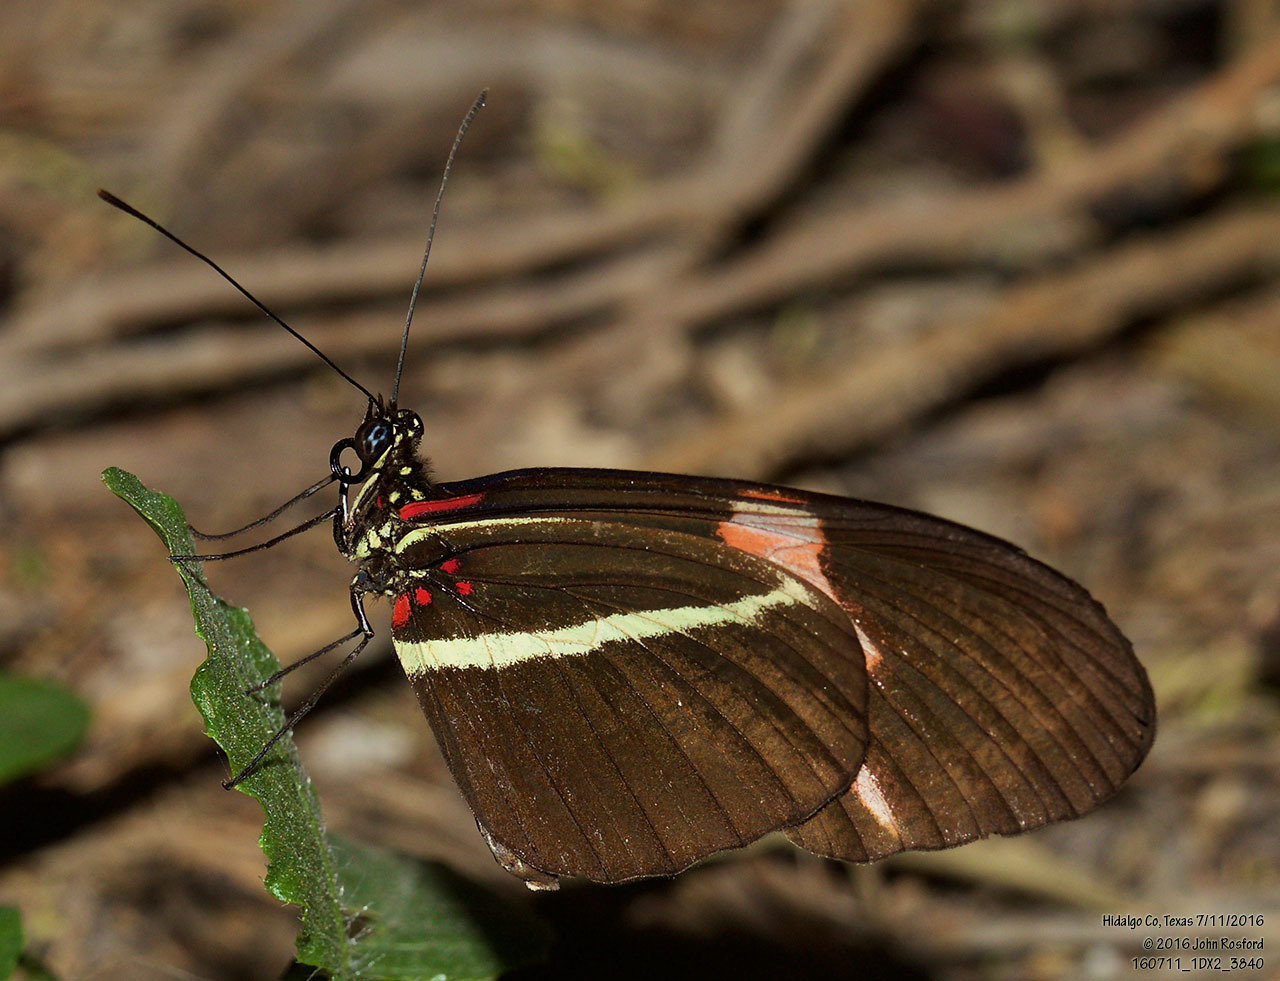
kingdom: Animalia
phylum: Arthropoda
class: Insecta
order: Lepidoptera
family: Nymphalidae
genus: Heliconius
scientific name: Heliconius erato
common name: Common patch longwing
